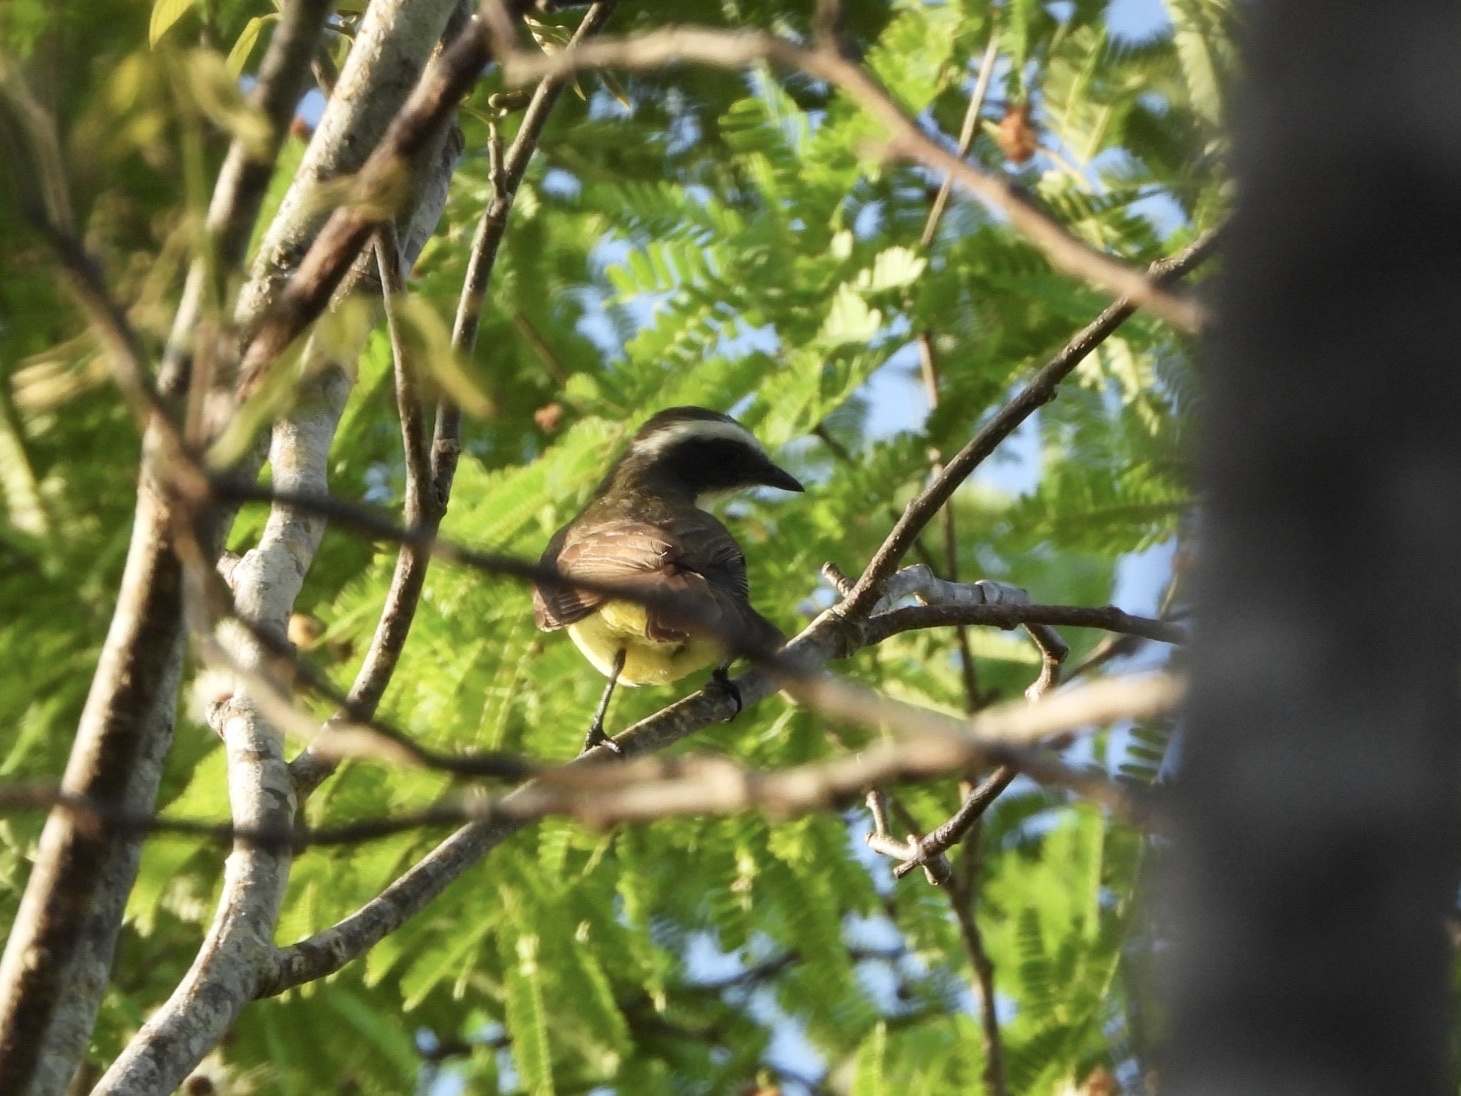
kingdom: Animalia
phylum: Chordata
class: Aves
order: Passeriformes
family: Tyrannidae
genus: Myiozetetes
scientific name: Myiozetetes similis
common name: Social flycatcher
